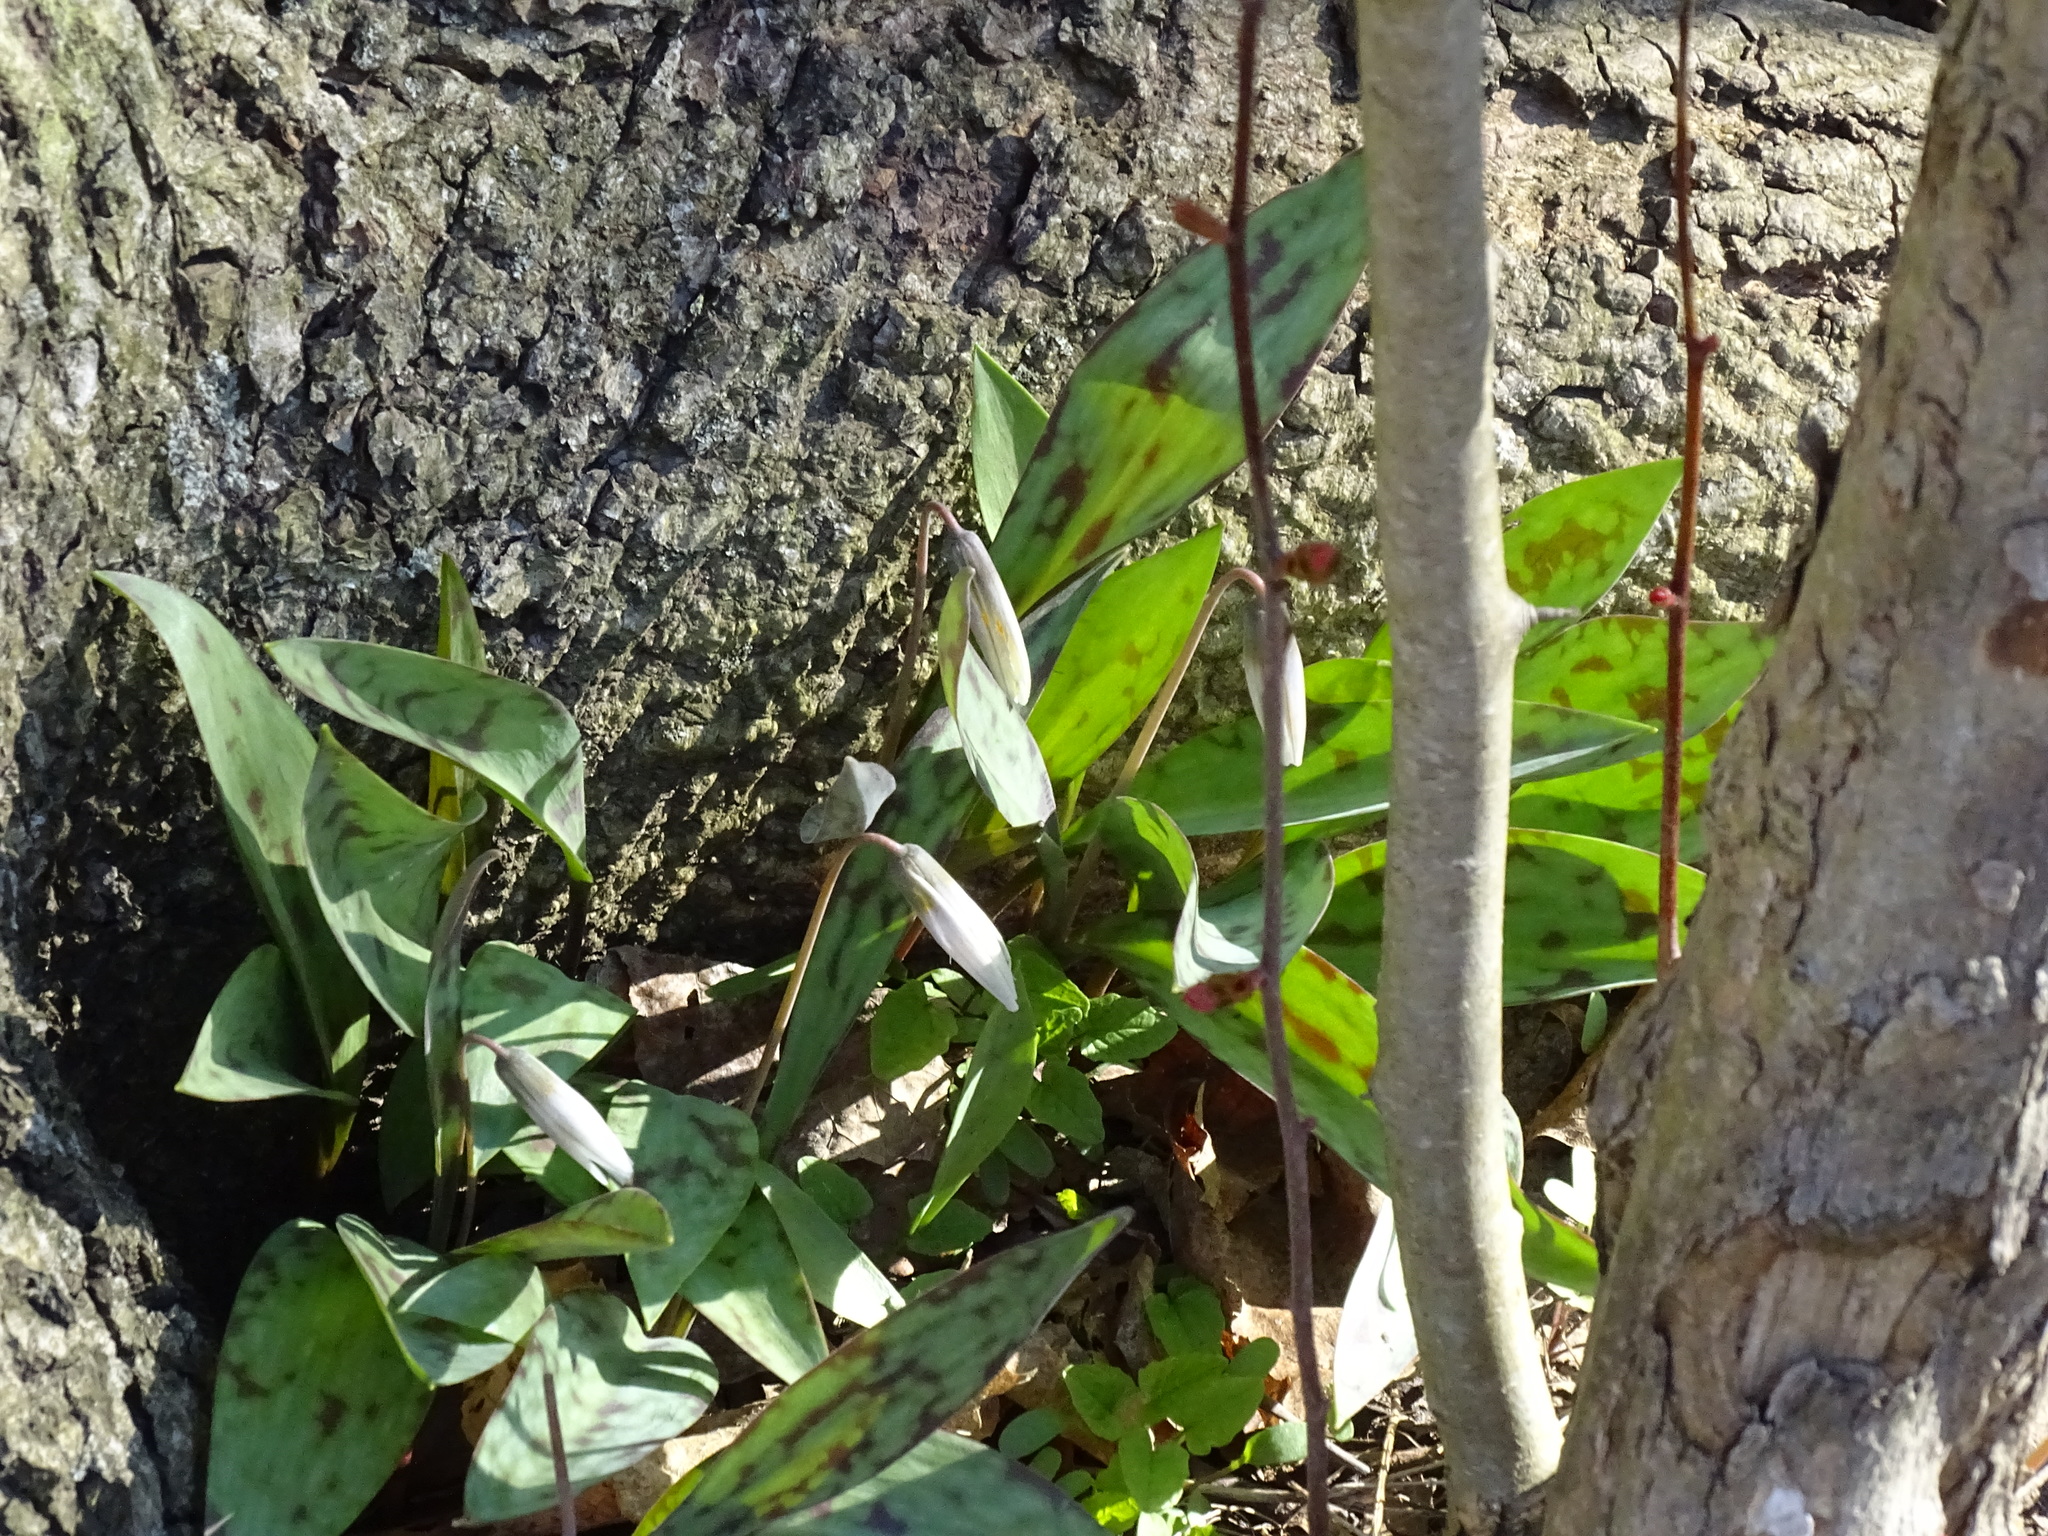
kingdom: Plantae
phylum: Tracheophyta
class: Liliopsida
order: Liliales
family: Liliaceae
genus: Erythronium
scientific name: Erythronium albidum
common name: White trout-lily
